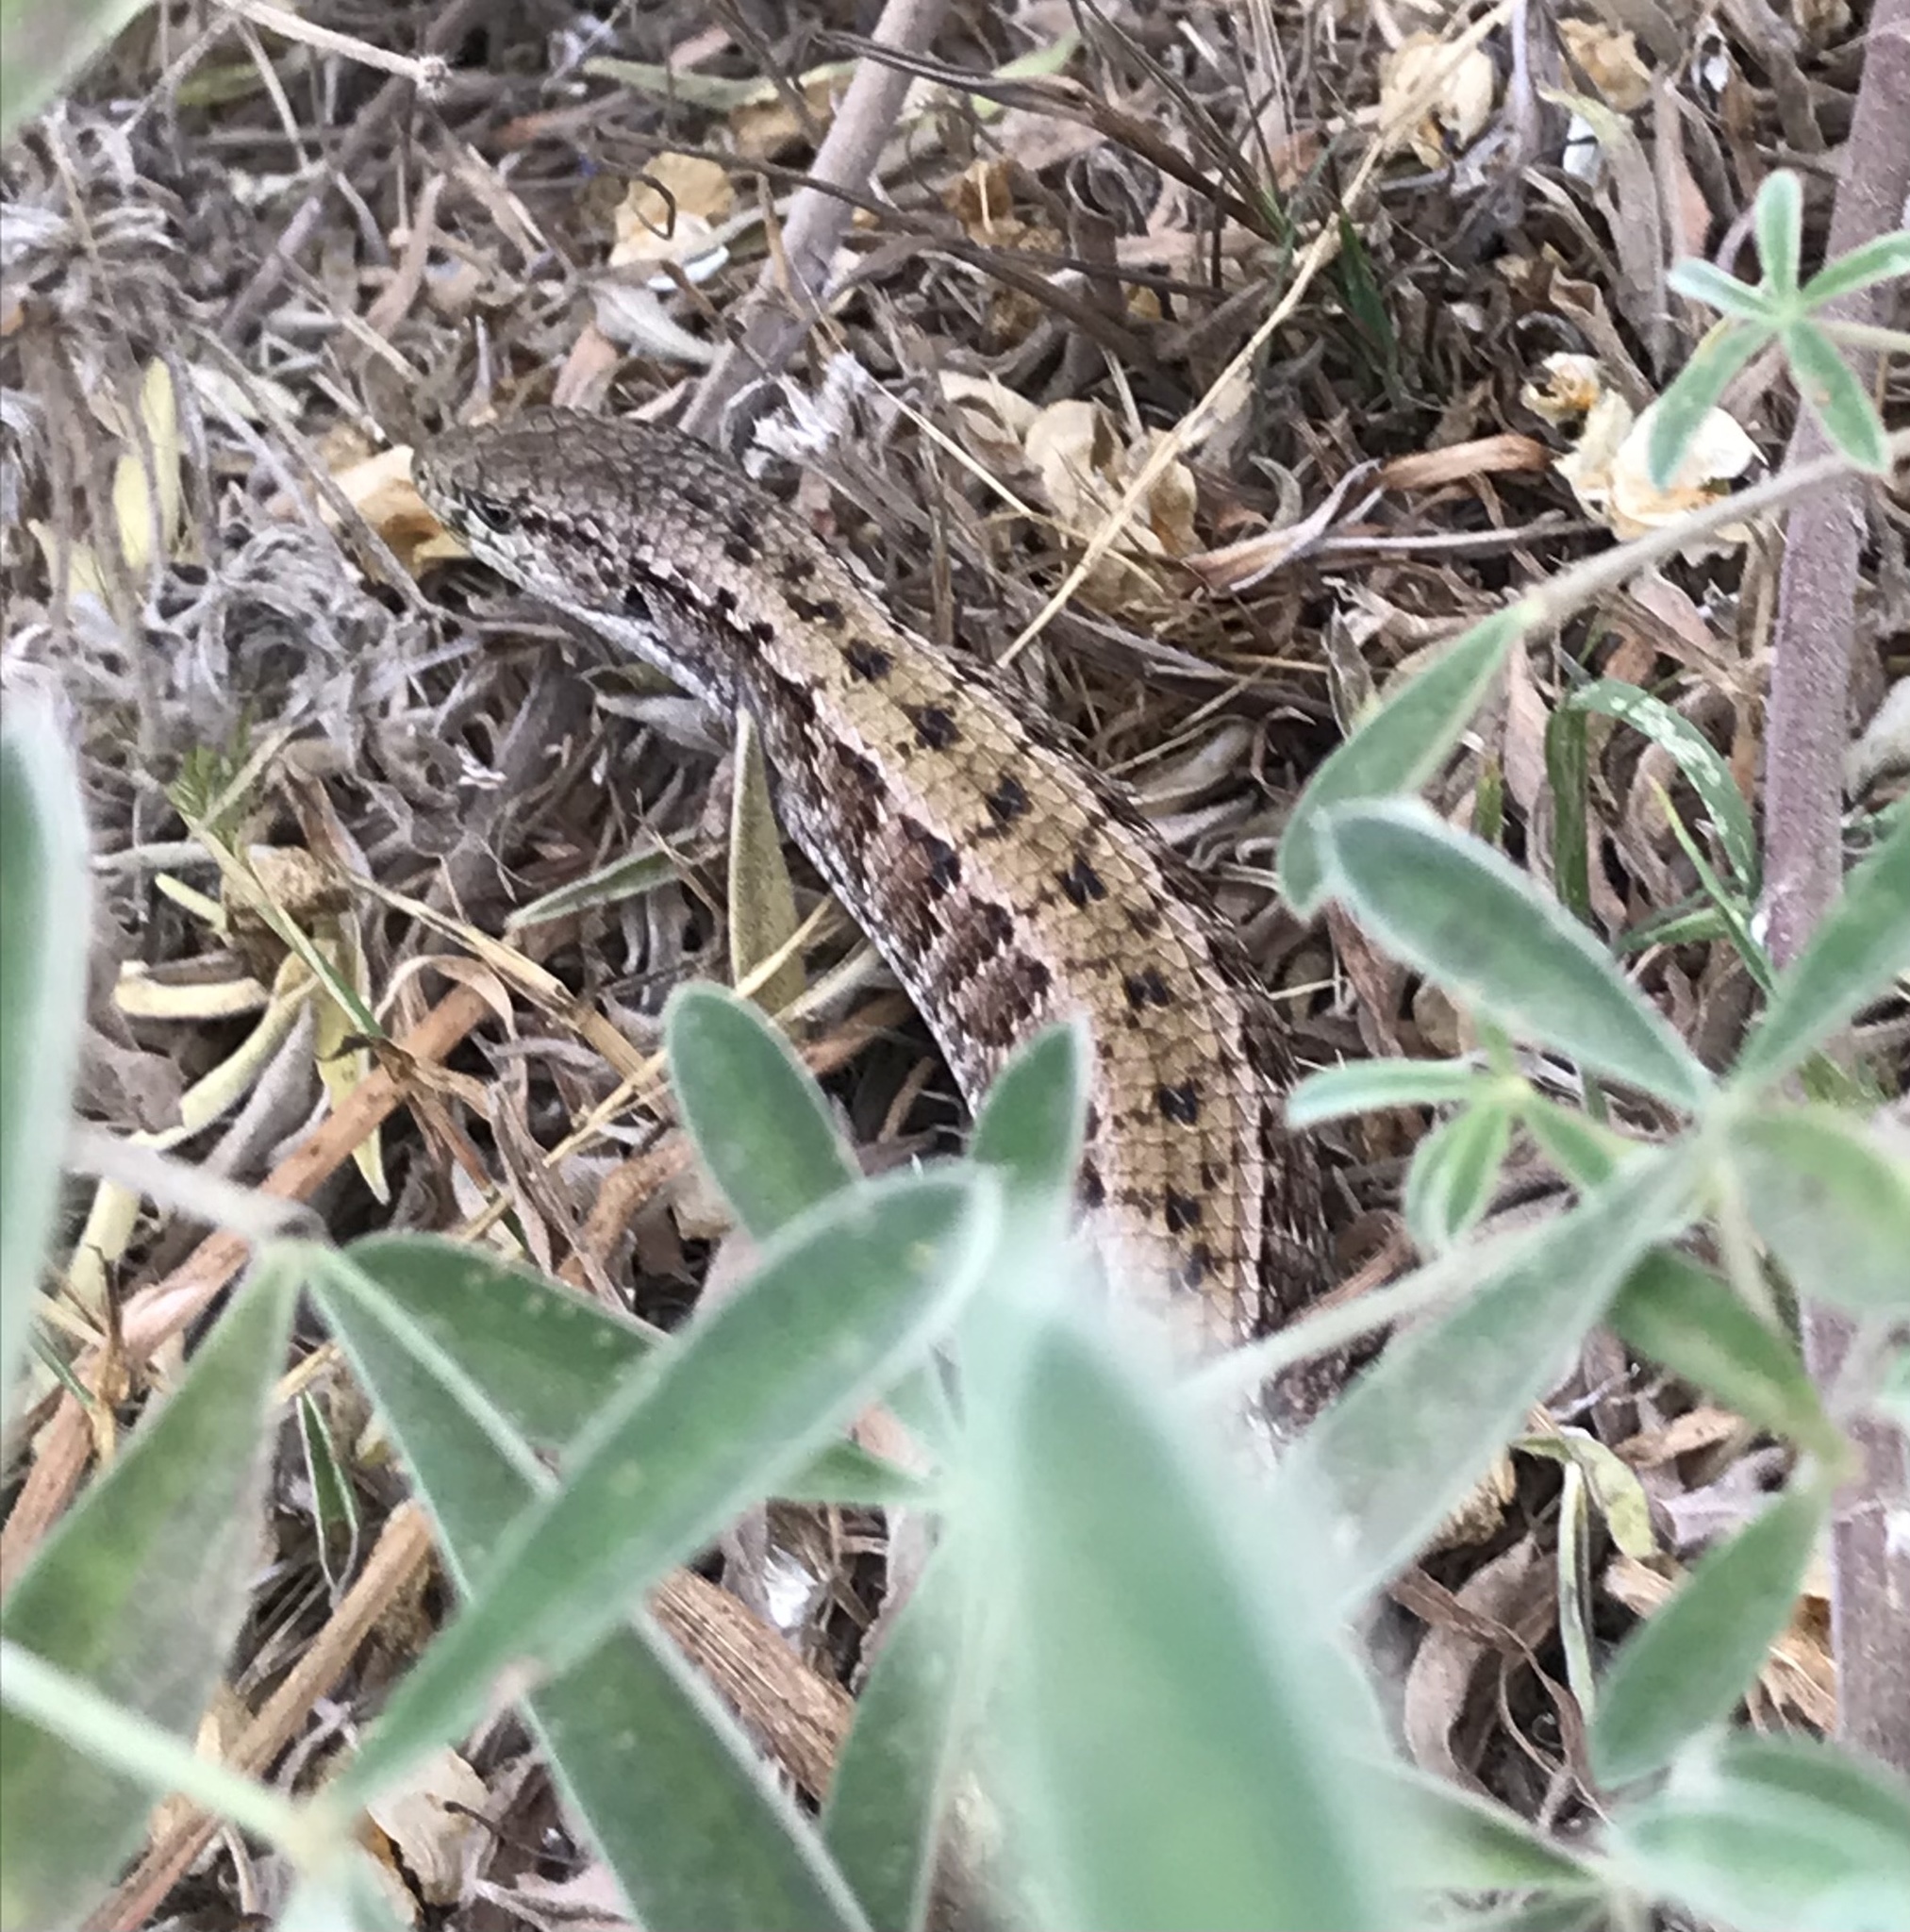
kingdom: Animalia
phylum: Chordata
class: Squamata
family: Anguidae
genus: Elgaria
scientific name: Elgaria coerulea
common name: Northern alligator lizard
